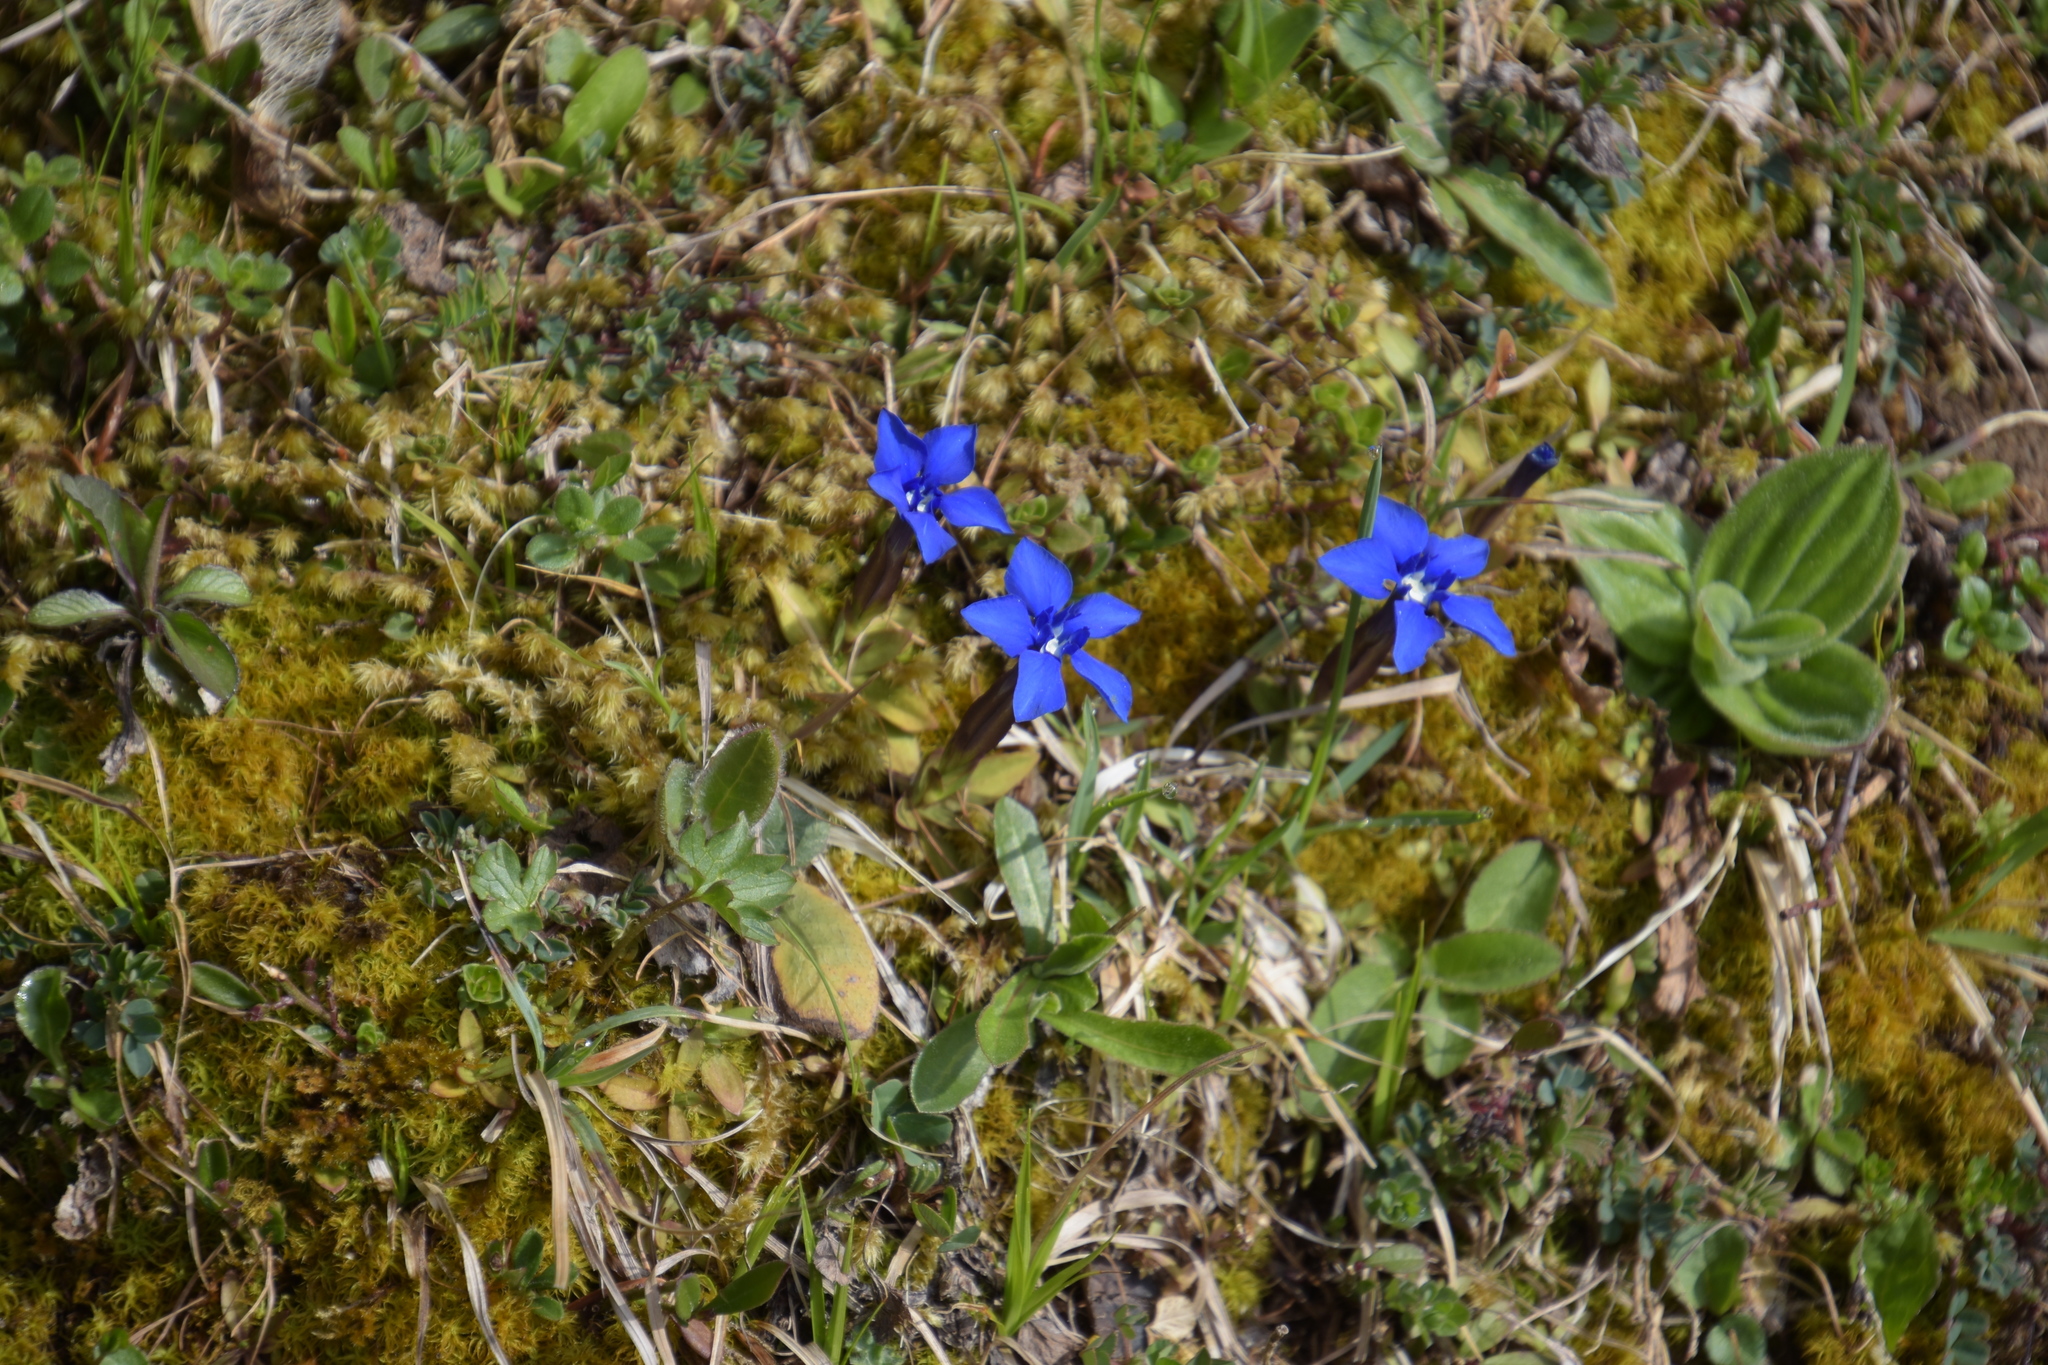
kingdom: Plantae
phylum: Tracheophyta
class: Magnoliopsida
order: Gentianales
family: Gentianaceae
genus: Gentiana
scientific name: Gentiana verna
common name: Spring gentian
